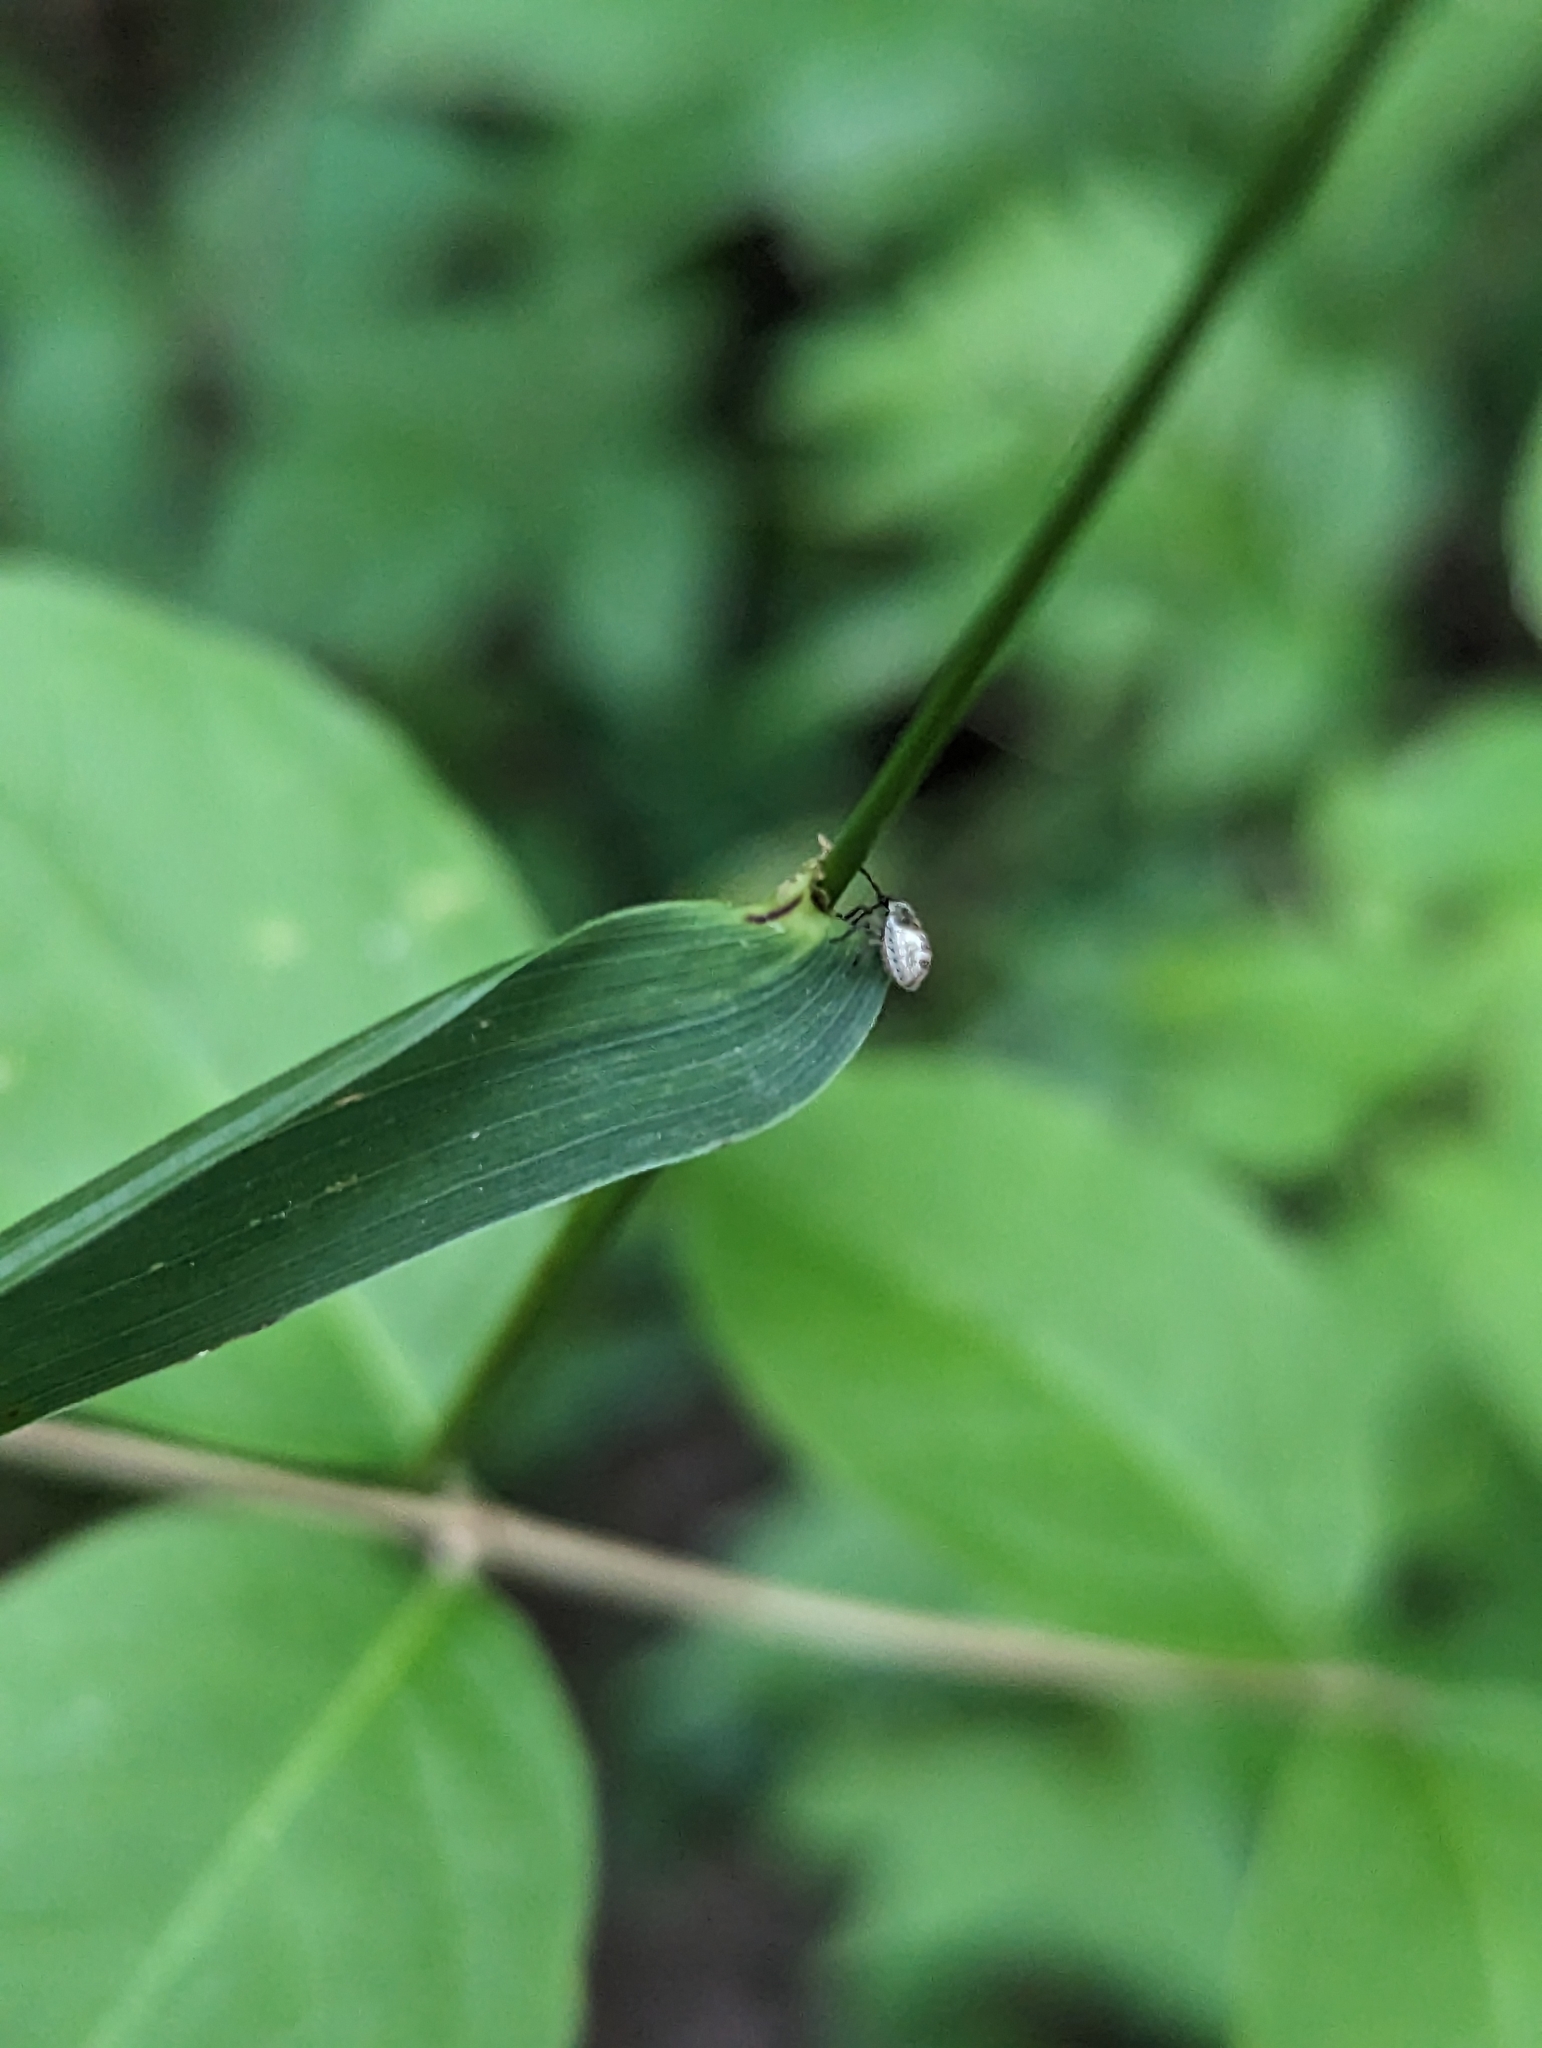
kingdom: Plantae
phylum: Tracheophyta
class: Liliopsida
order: Poales
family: Poaceae
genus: Elymus
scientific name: Elymus hystrix
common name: Bottlebrush grass
